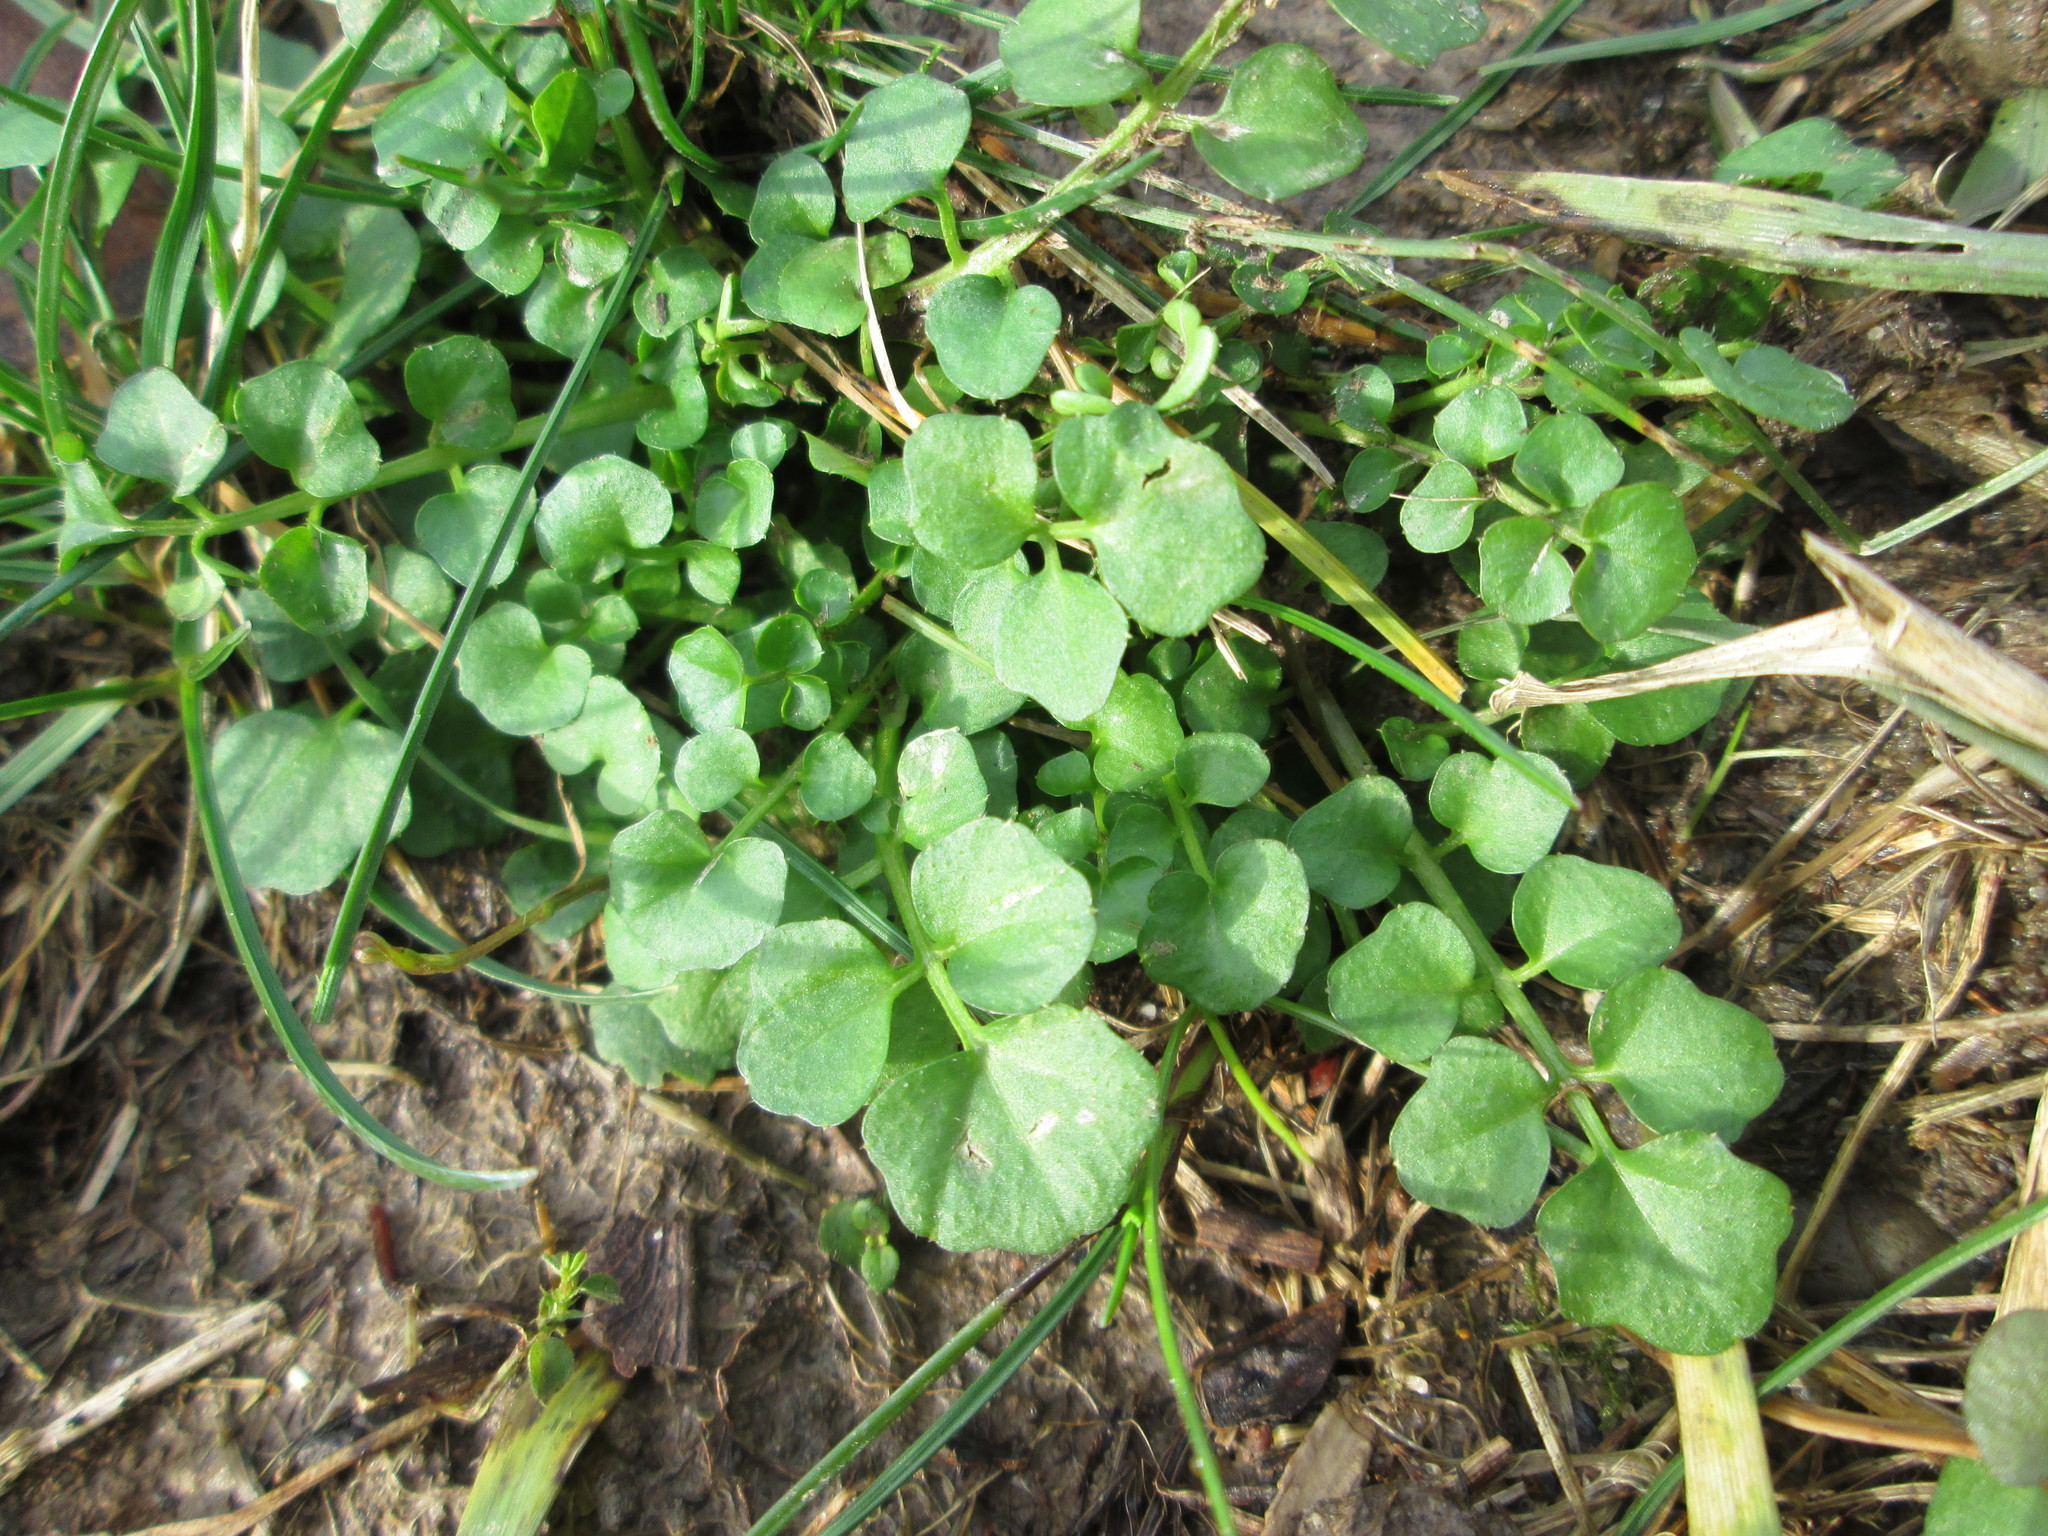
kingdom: Plantae
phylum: Tracheophyta
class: Magnoliopsida
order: Brassicales
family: Brassicaceae
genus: Cardamine
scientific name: Cardamine hirsuta
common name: Hairy bittercress
